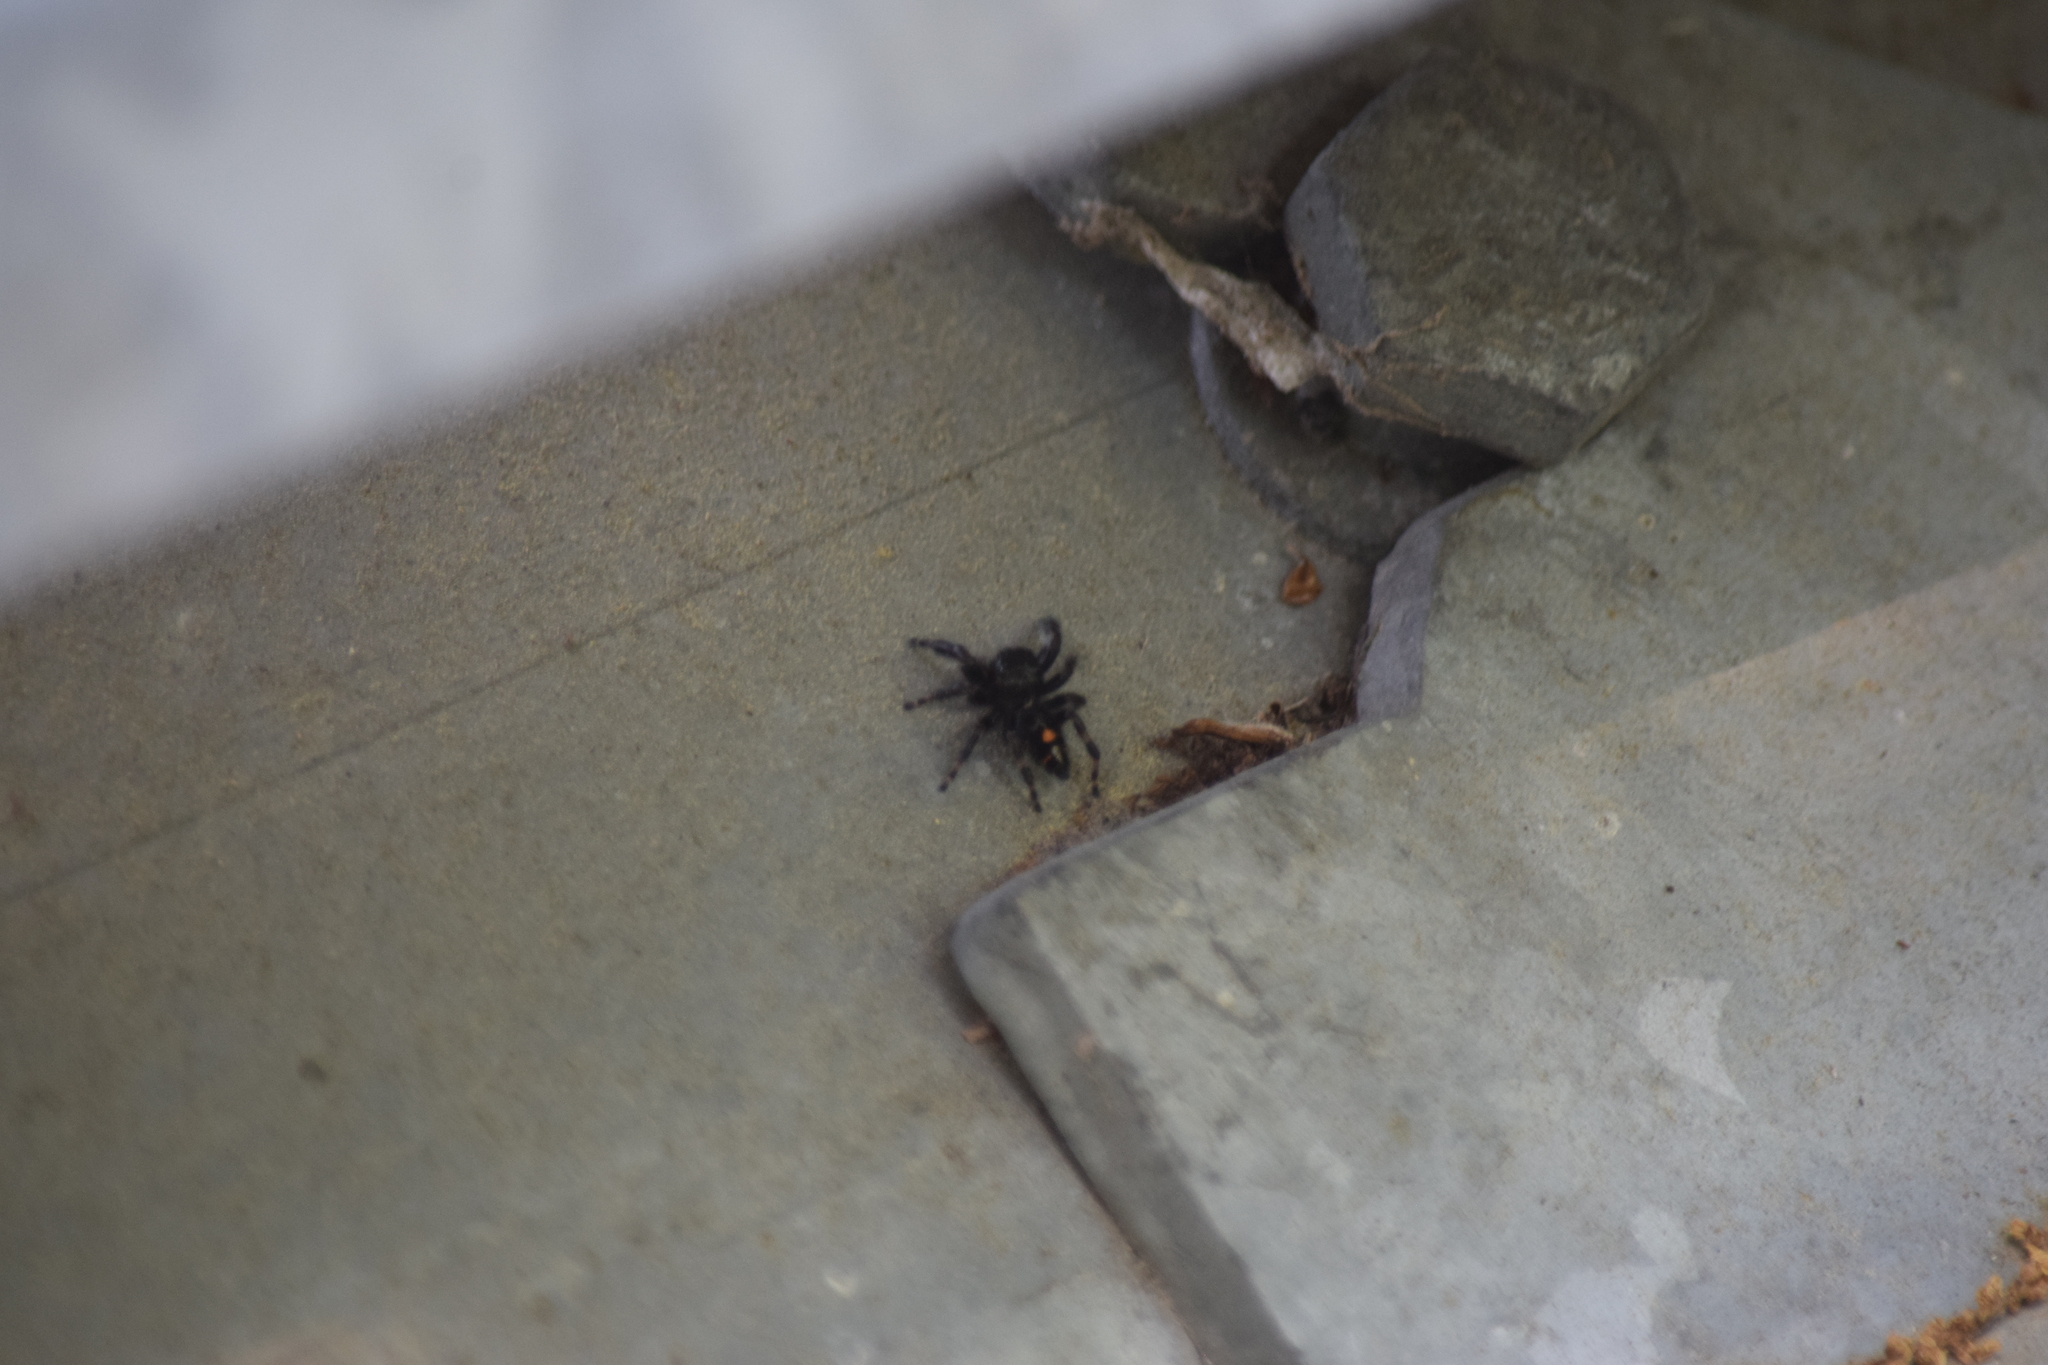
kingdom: Animalia
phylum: Arthropoda
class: Arachnida
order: Araneae
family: Salticidae
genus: Phidippus
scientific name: Phidippus audax
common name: Bold jumper
